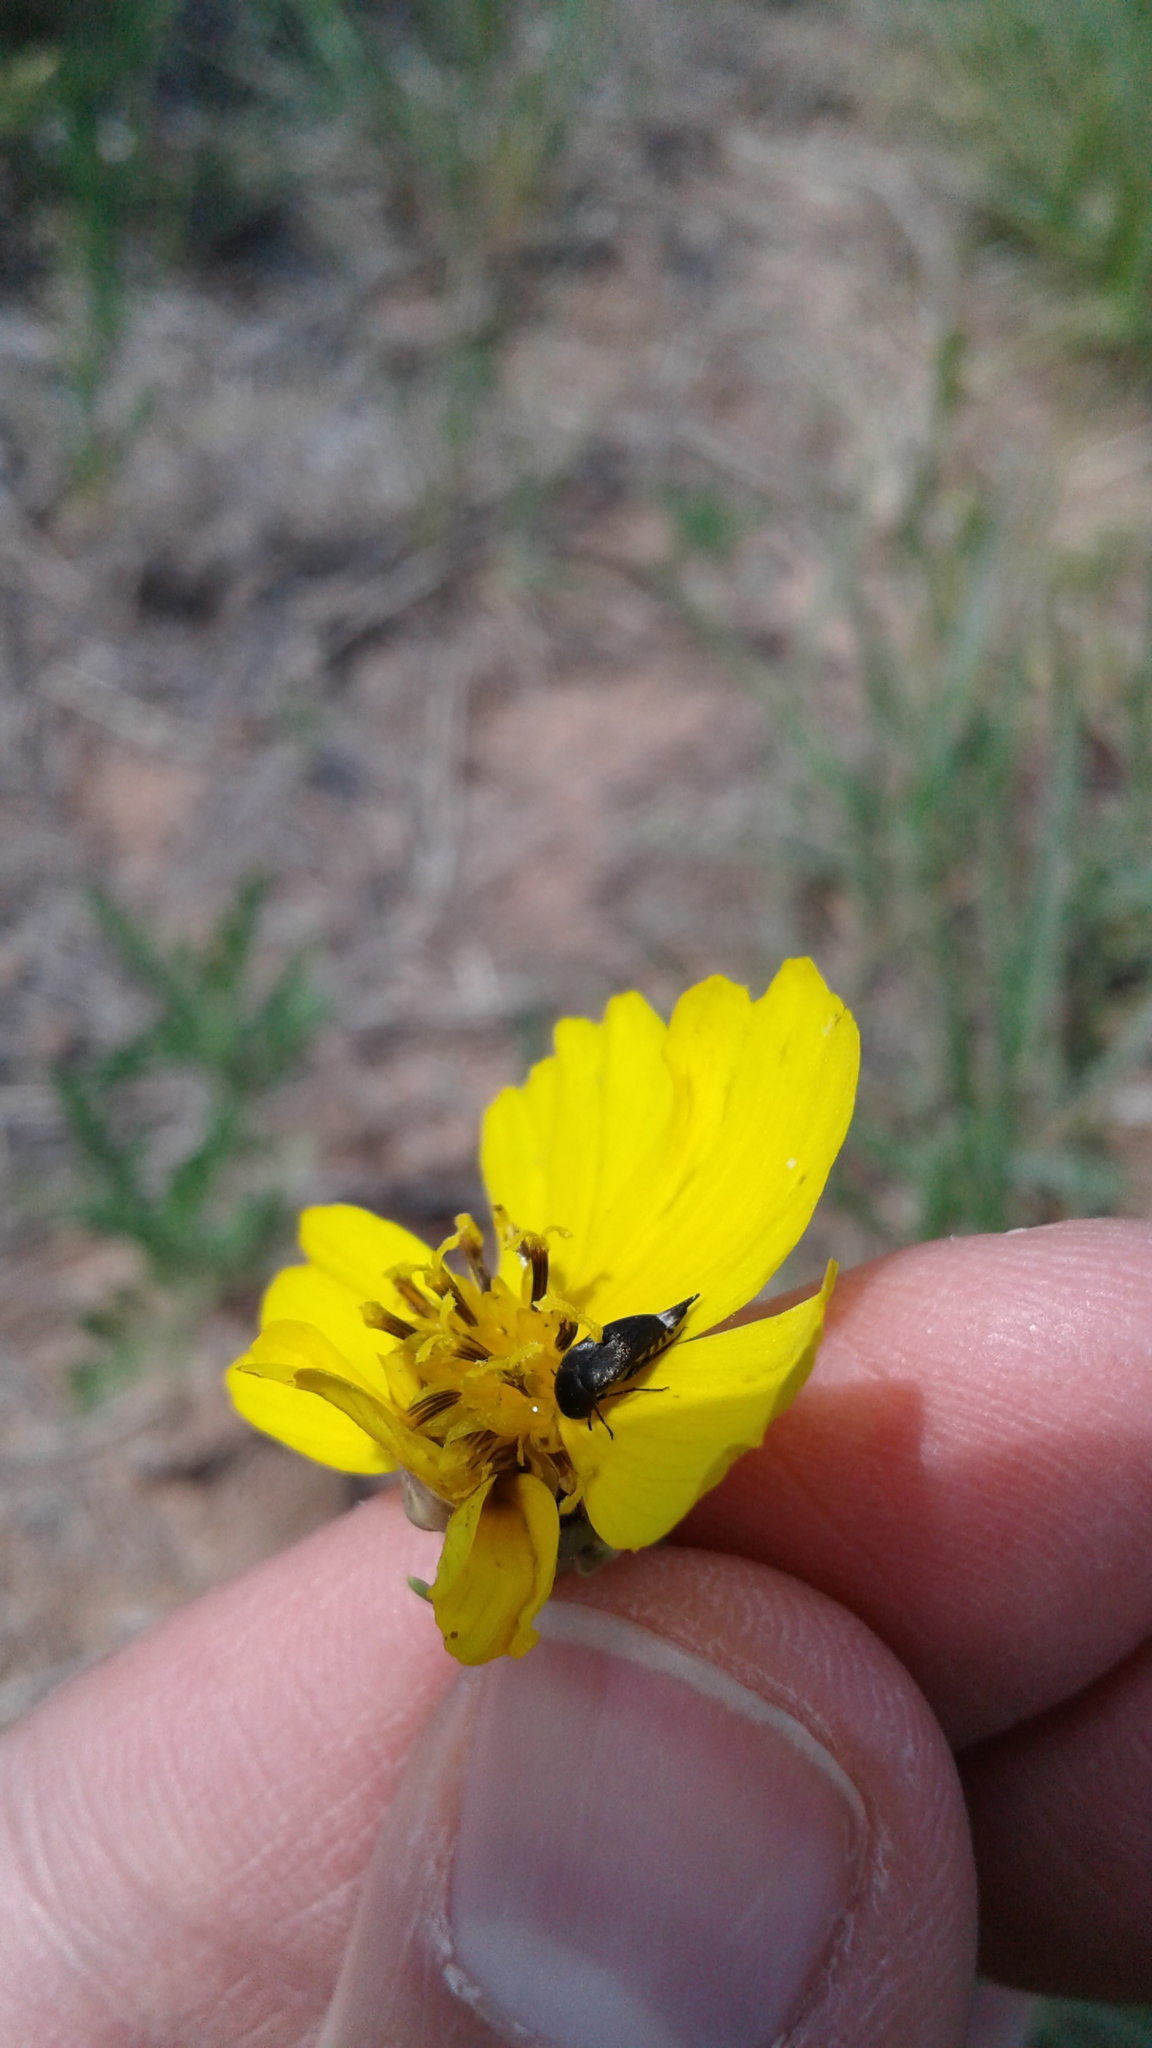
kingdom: Animalia
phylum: Arthropoda
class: Insecta
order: Coleoptera
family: Cerambycidae
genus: Batyle
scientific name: Batyle suturalis
